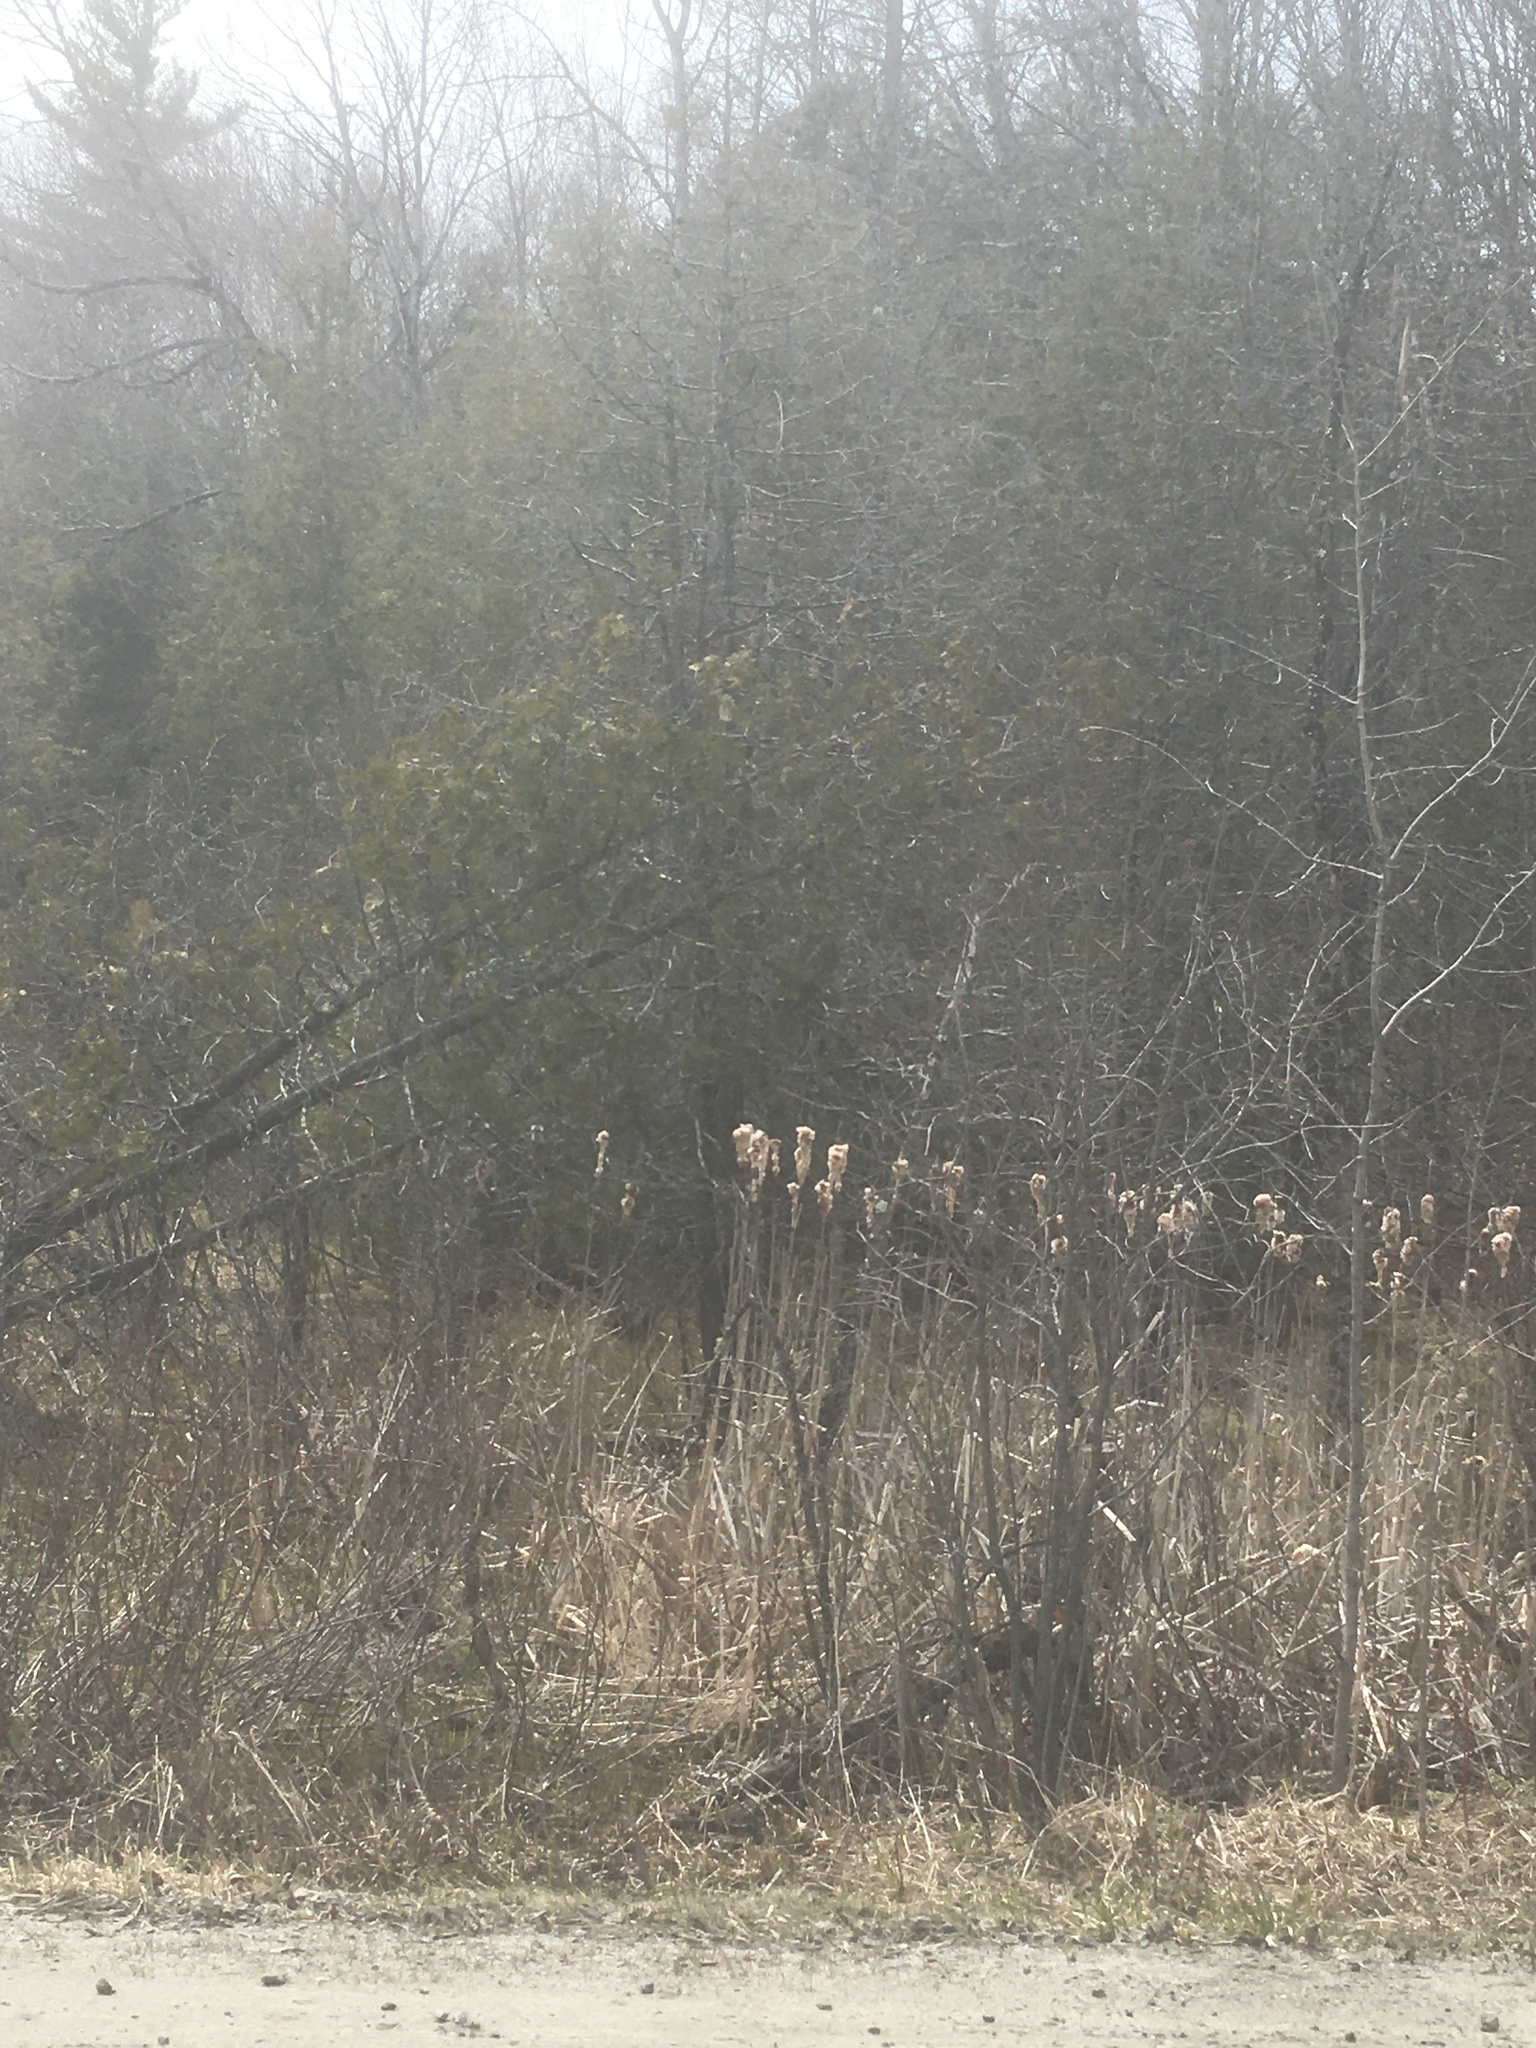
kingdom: Plantae
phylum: Tracheophyta
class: Pinopsida
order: Pinales
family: Cupressaceae
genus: Thuja
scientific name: Thuja occidentalis
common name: Northern white-cedar
